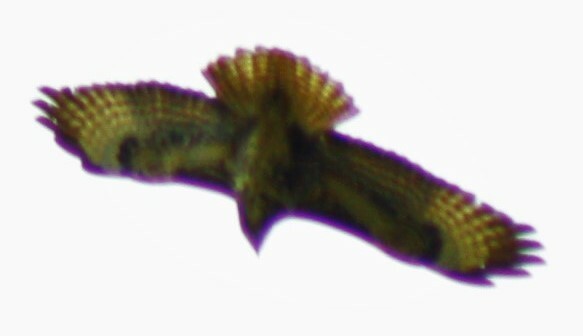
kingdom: Animalia
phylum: Chordata
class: Aves
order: Accipitriformes
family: Accipitridae
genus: Buteo
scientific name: Buteo buteo
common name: Common buzzard
